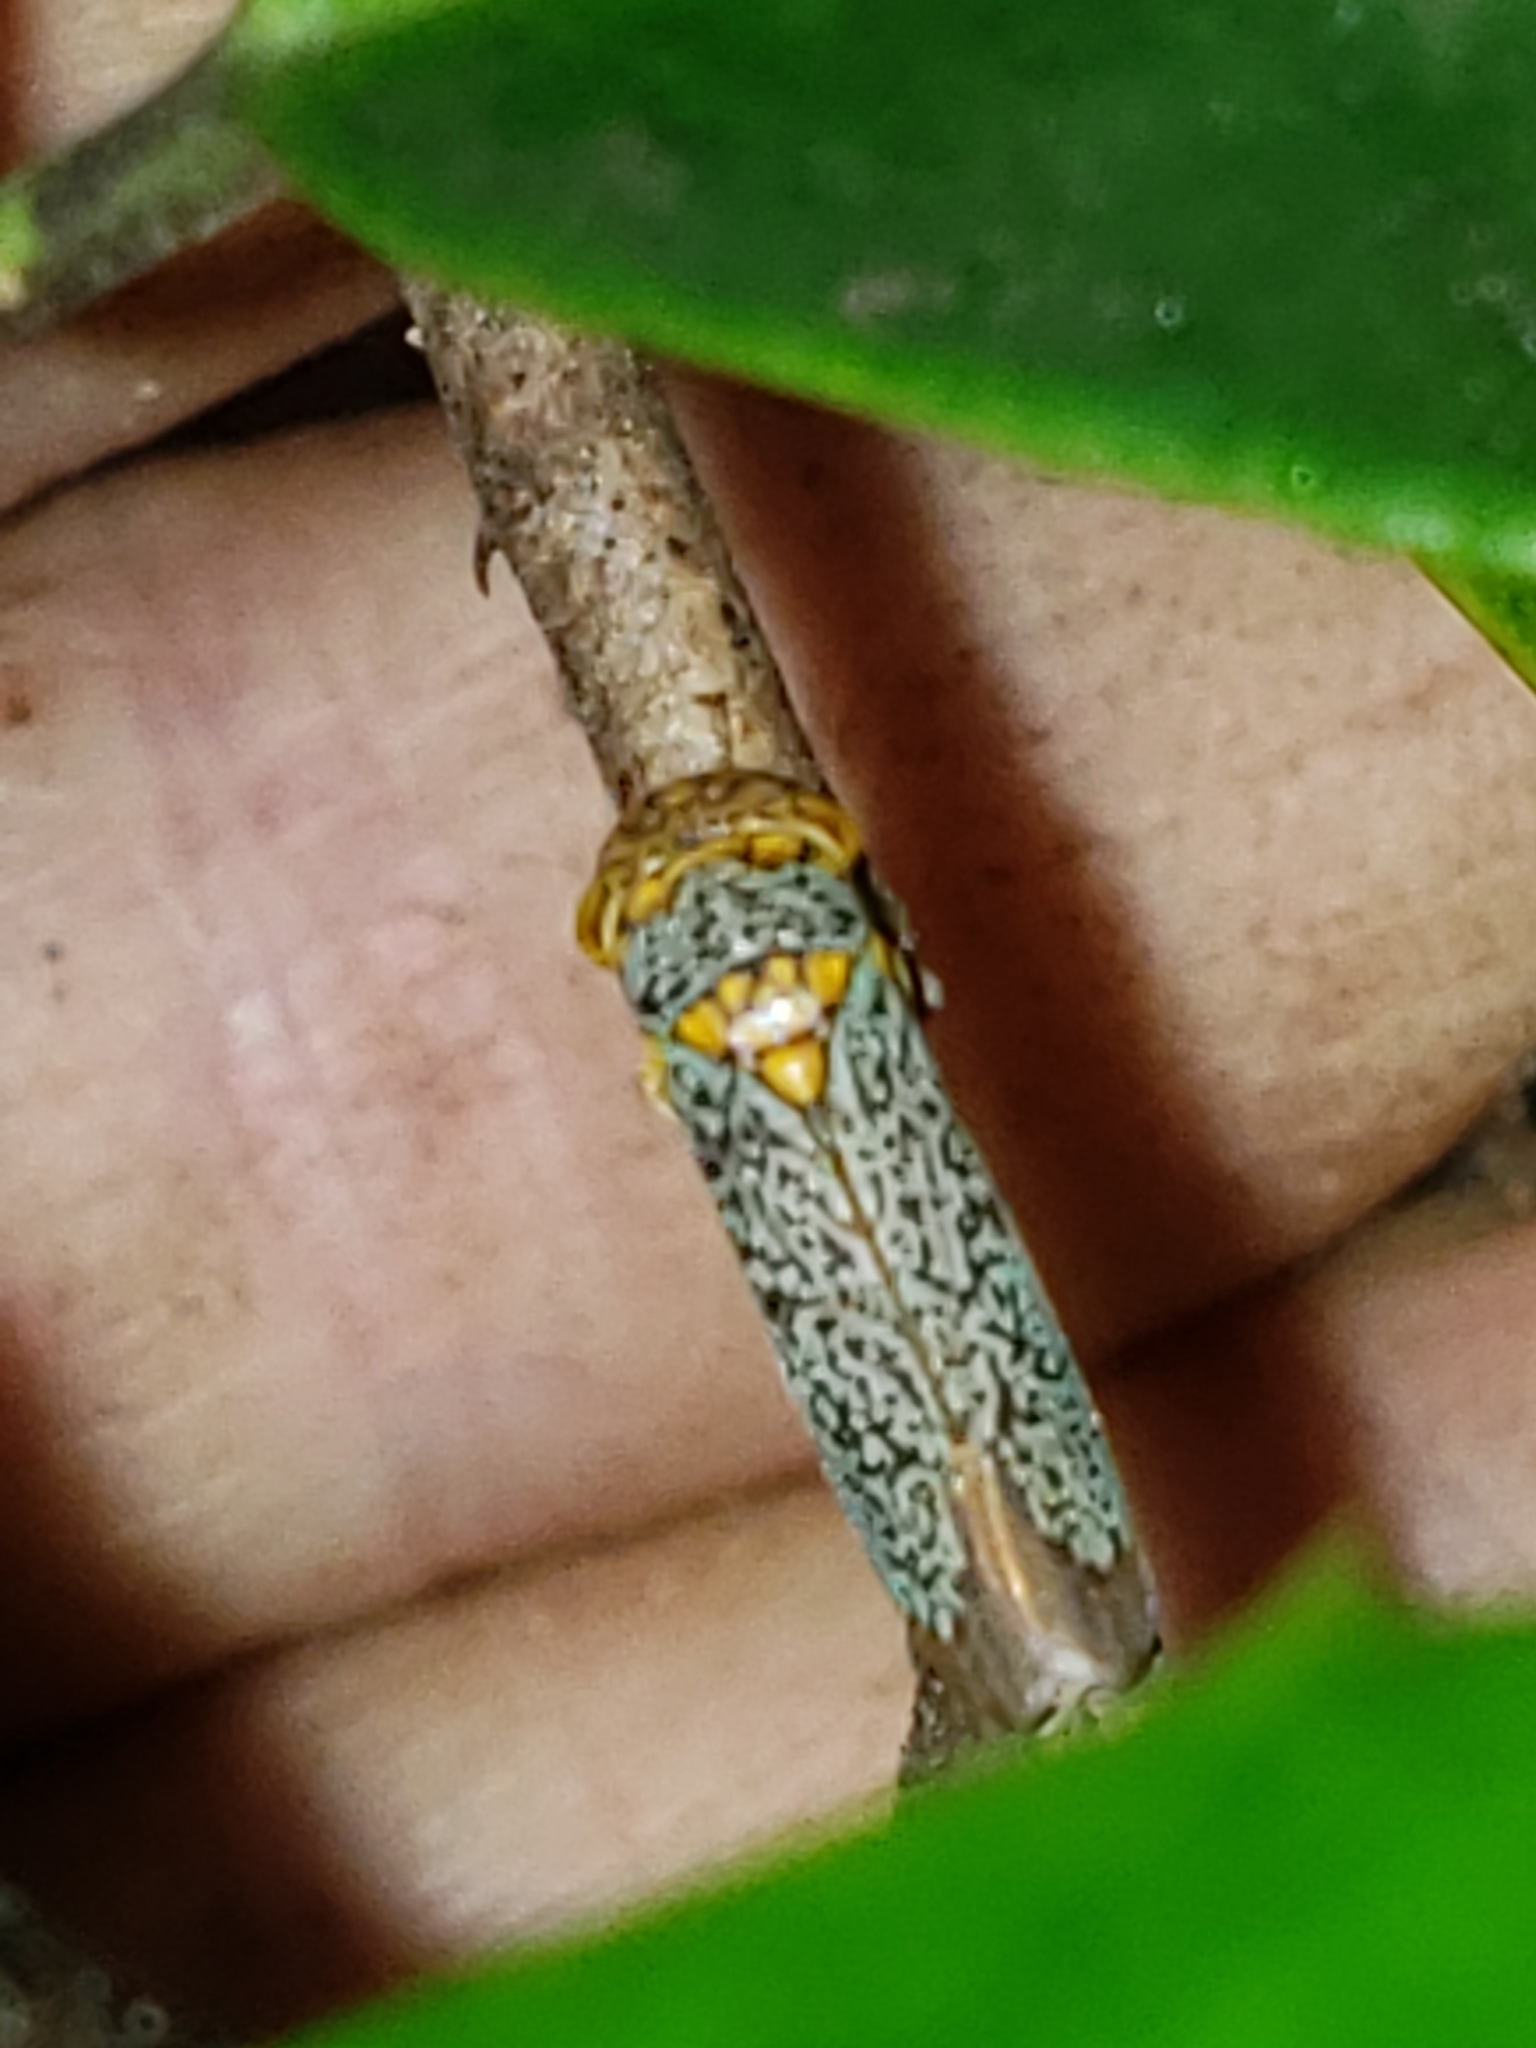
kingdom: Animalia
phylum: Arthropoda
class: Insecta
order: Hemiptera
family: Cicadellidae
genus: Oncometopia
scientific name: Oncometopia orbona
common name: Broad-headed sharpshooter
